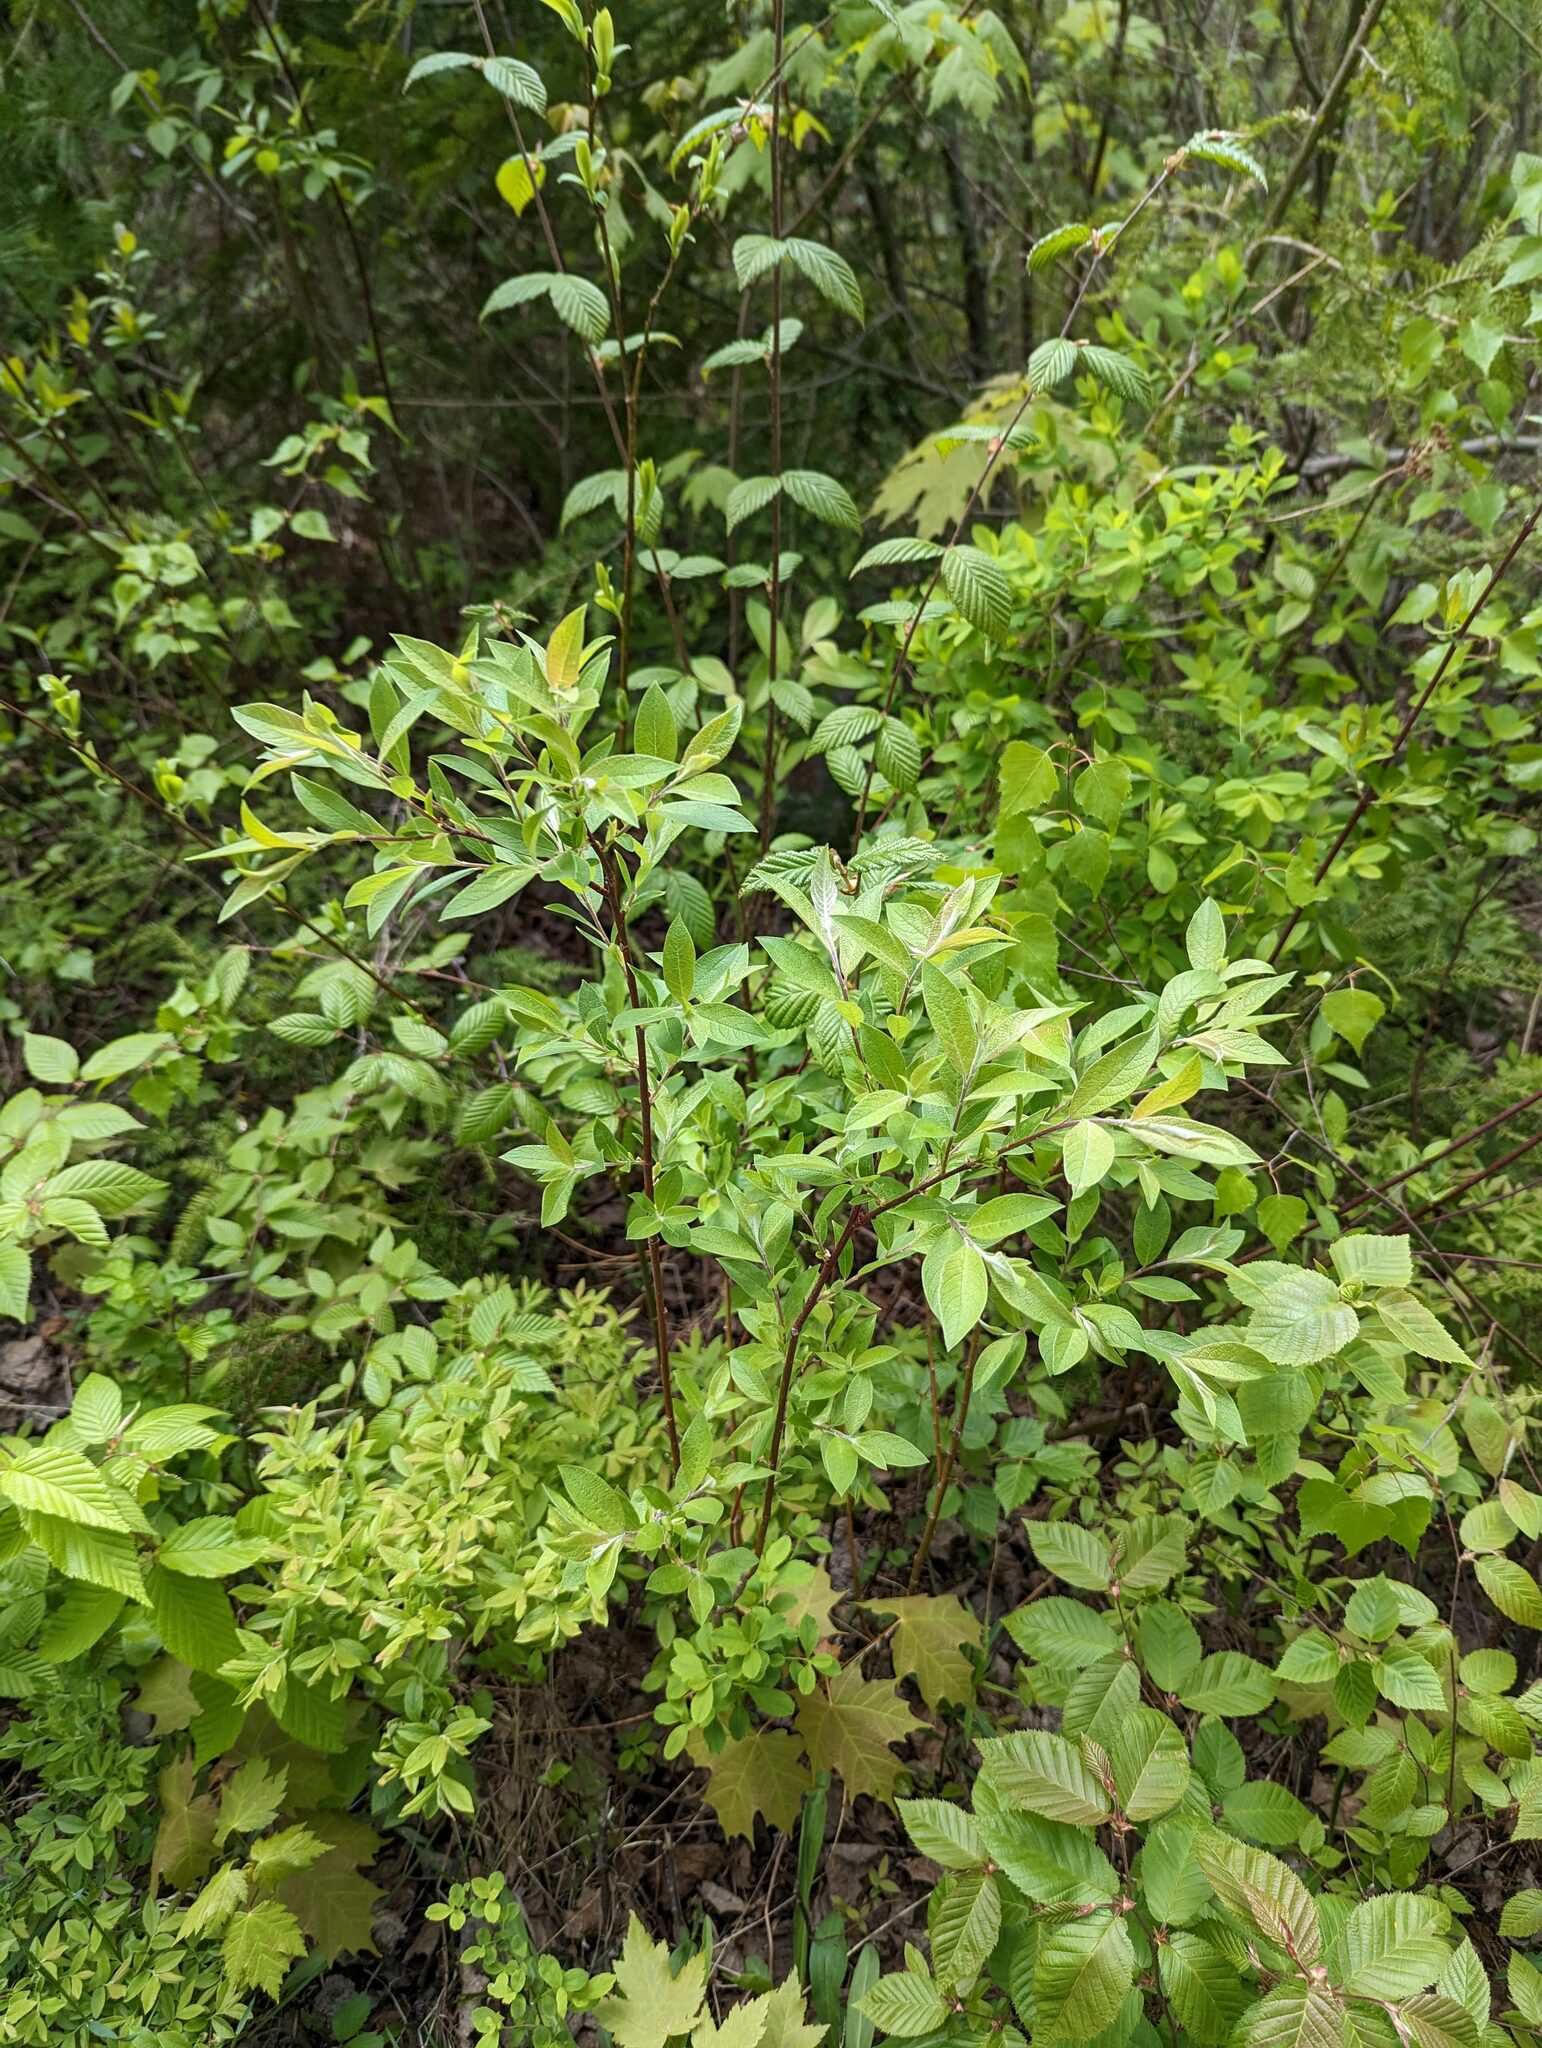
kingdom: Plantae
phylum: Tracheophyta
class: Magnoliopsida
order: Malpighiales
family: Salicaceae
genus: Salix
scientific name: Salix bebbiana
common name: Bebb's willow
